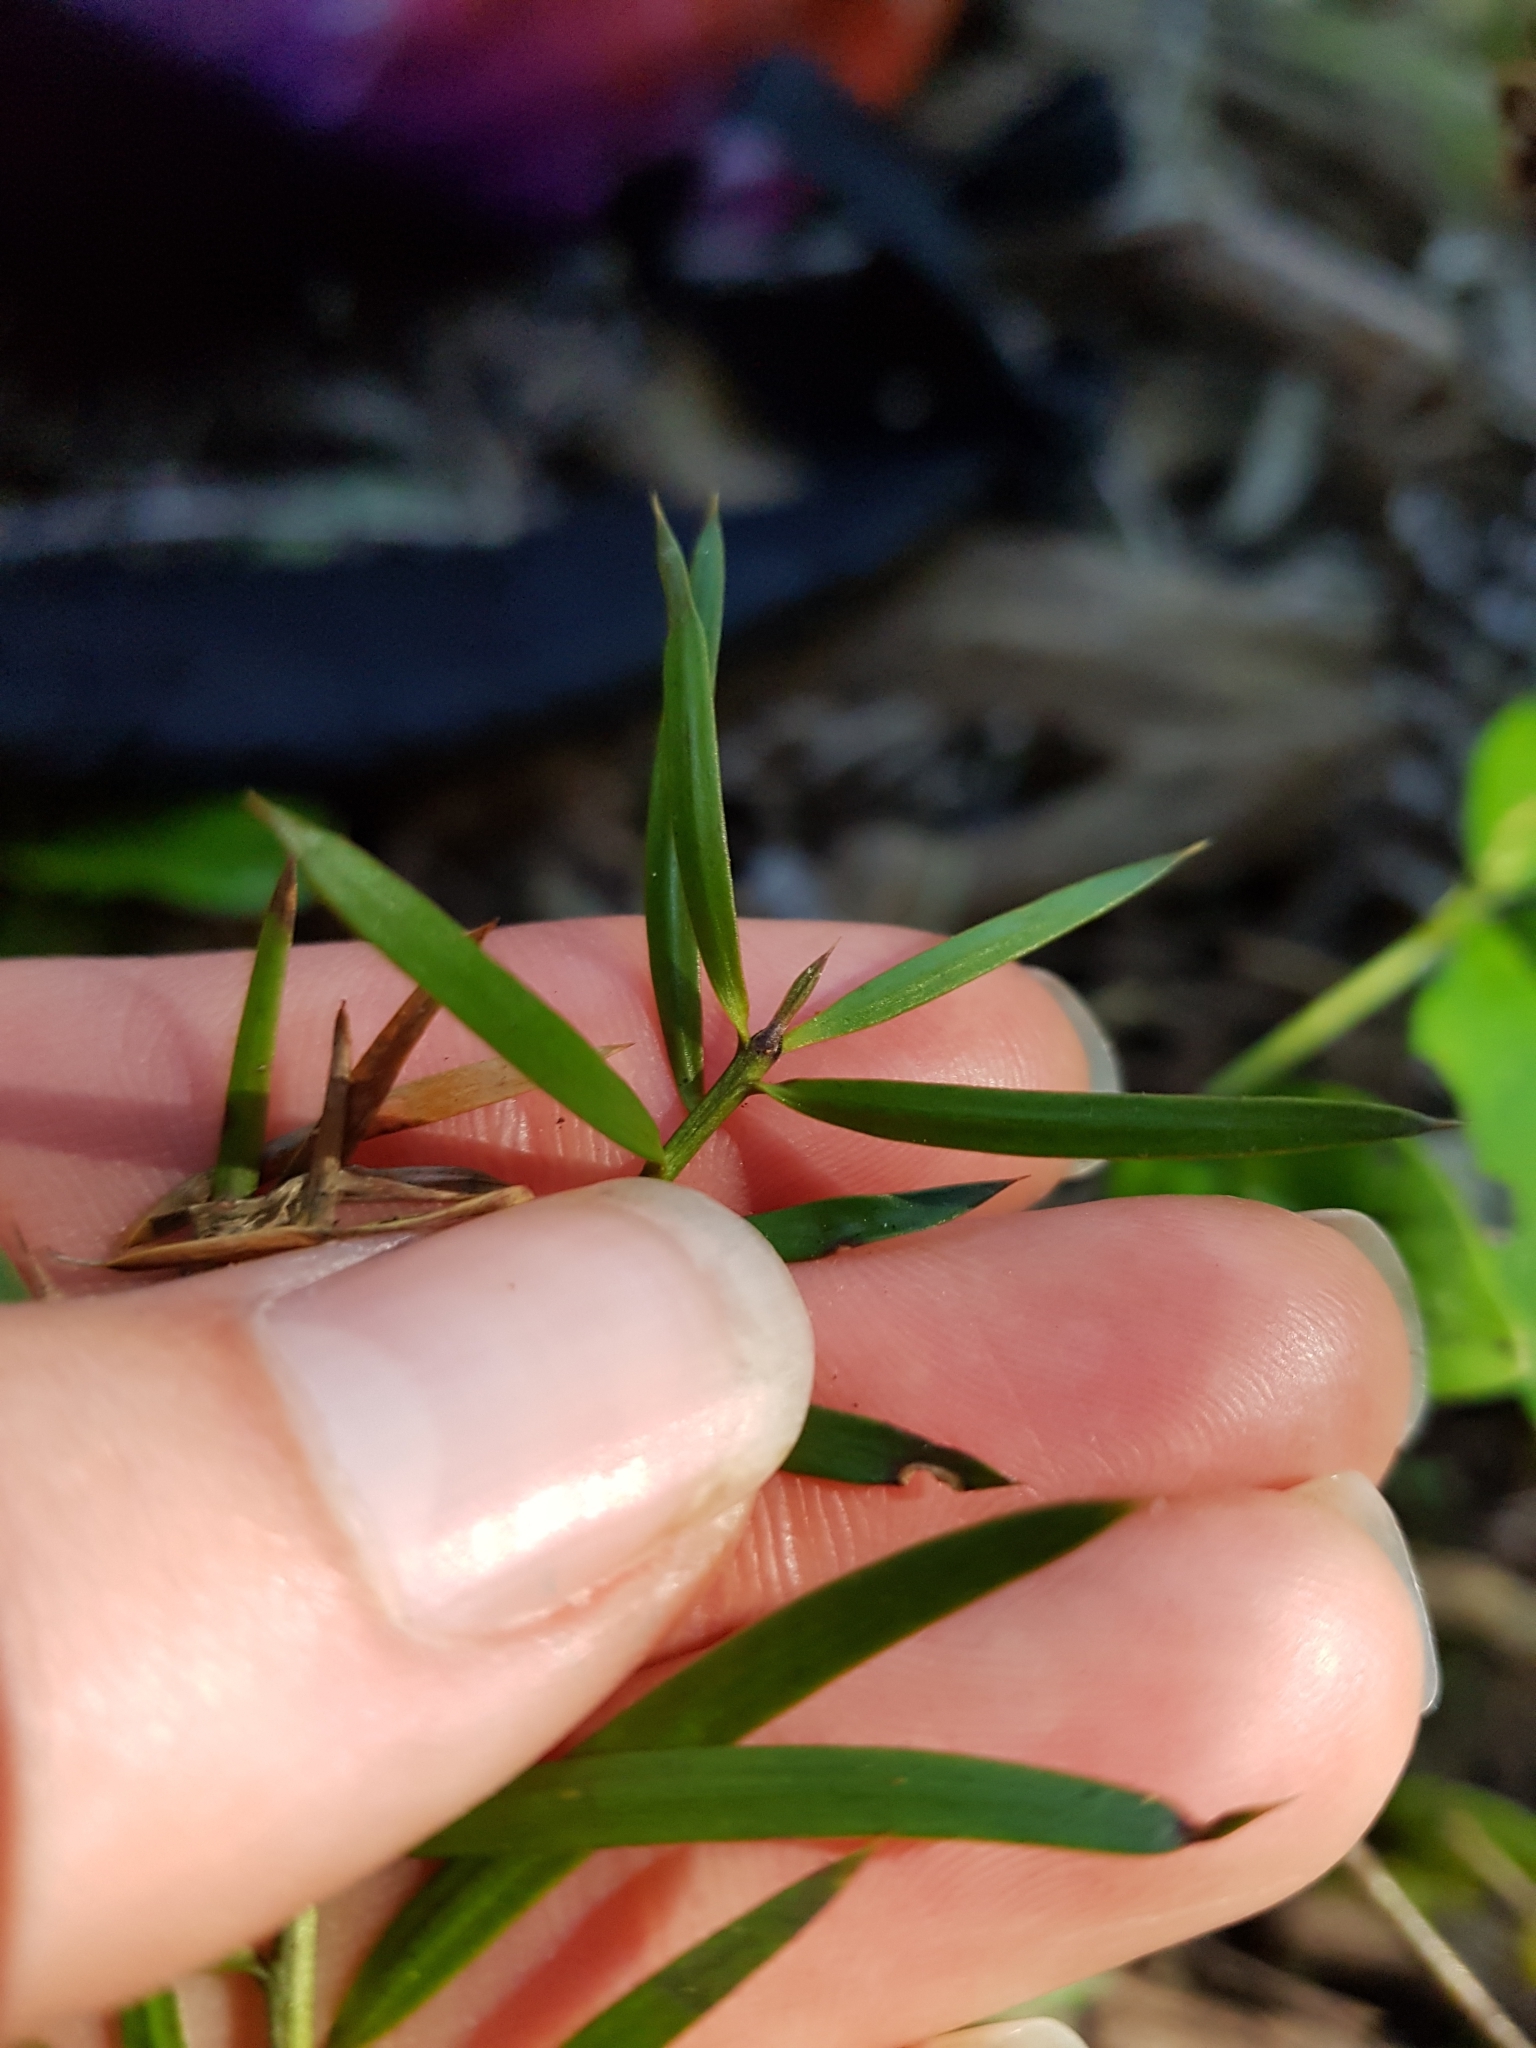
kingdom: Plantae
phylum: Tracheophyta
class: Pinopsida
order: Pinales
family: Podocarpaceae
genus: Podocarpus
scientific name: Podocarpus totara
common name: Totara
